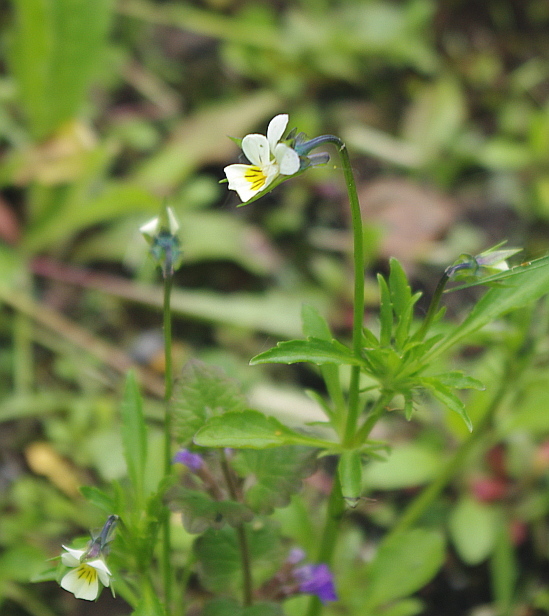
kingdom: Plantae
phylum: Tracheophyta
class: Magnoliopsida
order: Malpighiales
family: Violaceae
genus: Viola
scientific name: Viola arvensis
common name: Field pansy
